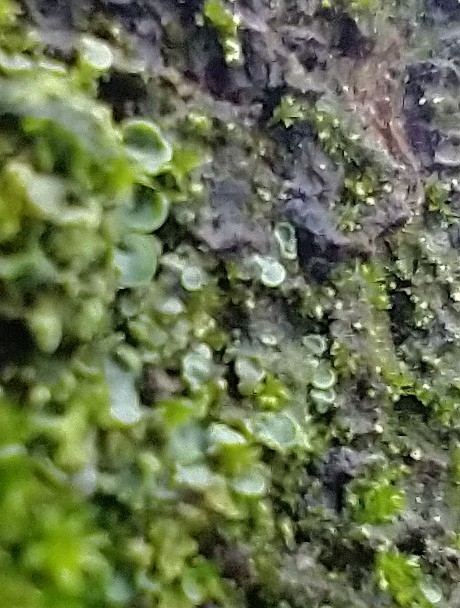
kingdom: Fungi
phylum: Ascomycota
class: Eurotiomycetes
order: Verrucariales
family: Verrucariaceae
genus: Normandina
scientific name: Normandina pulchella
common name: Elf ears lichen
